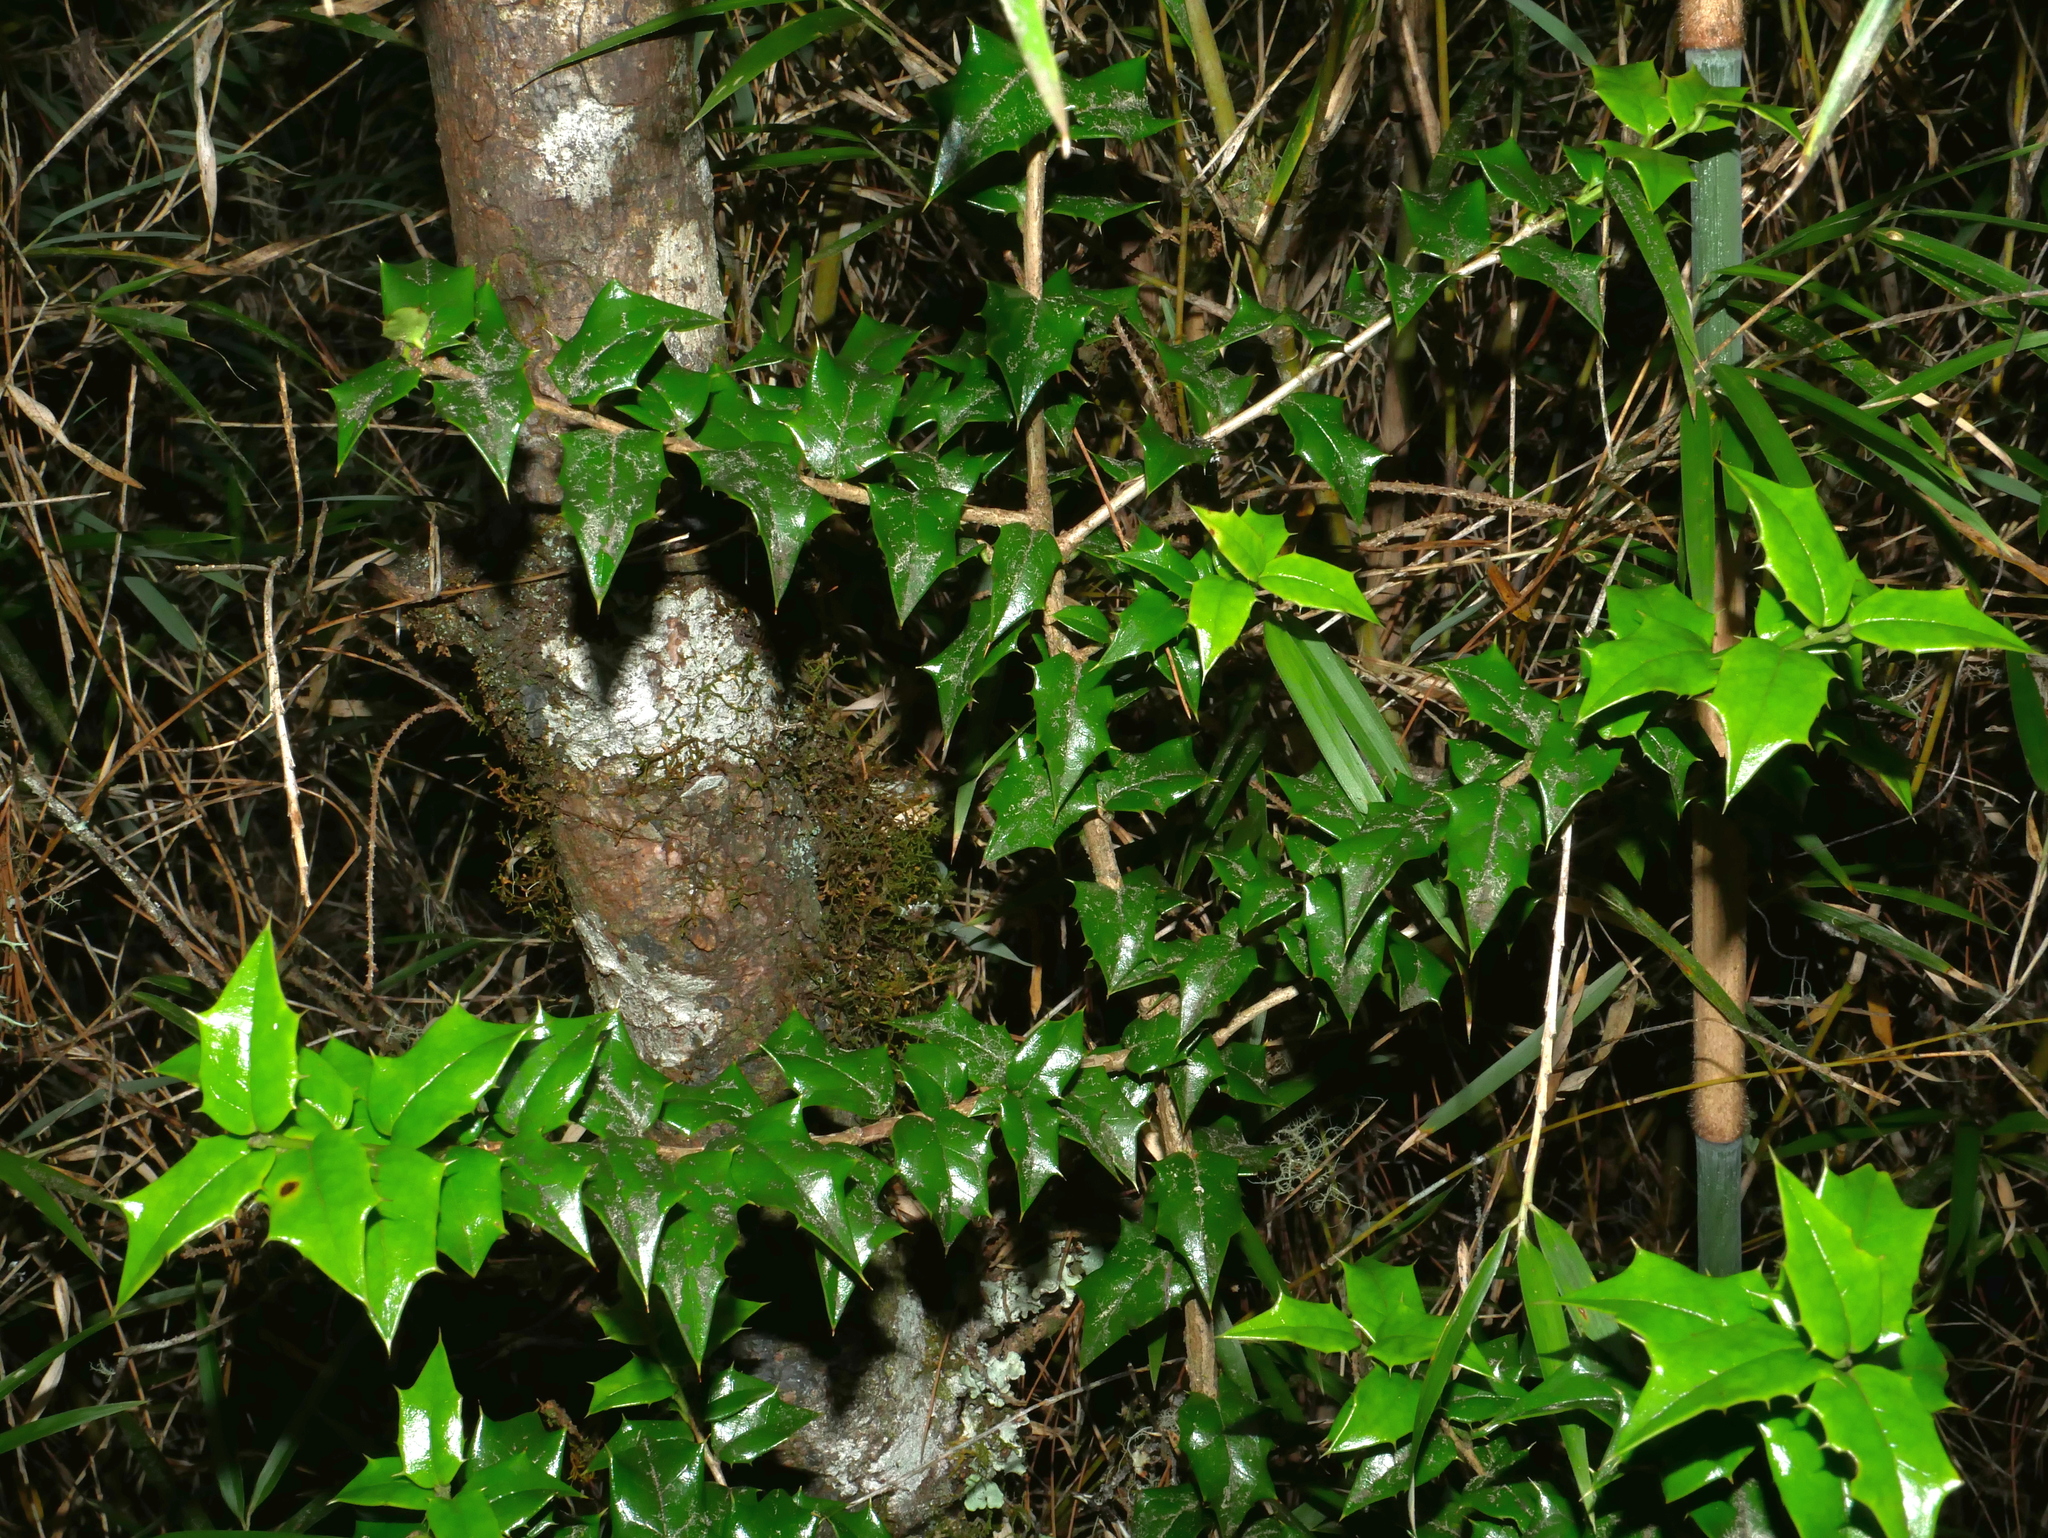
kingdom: Plantae
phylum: Tracheophyta
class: Magnoliopsida
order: Aquifoliales
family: Aquifoliaceae
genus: Ilex
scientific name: Ilex bioritsensis
